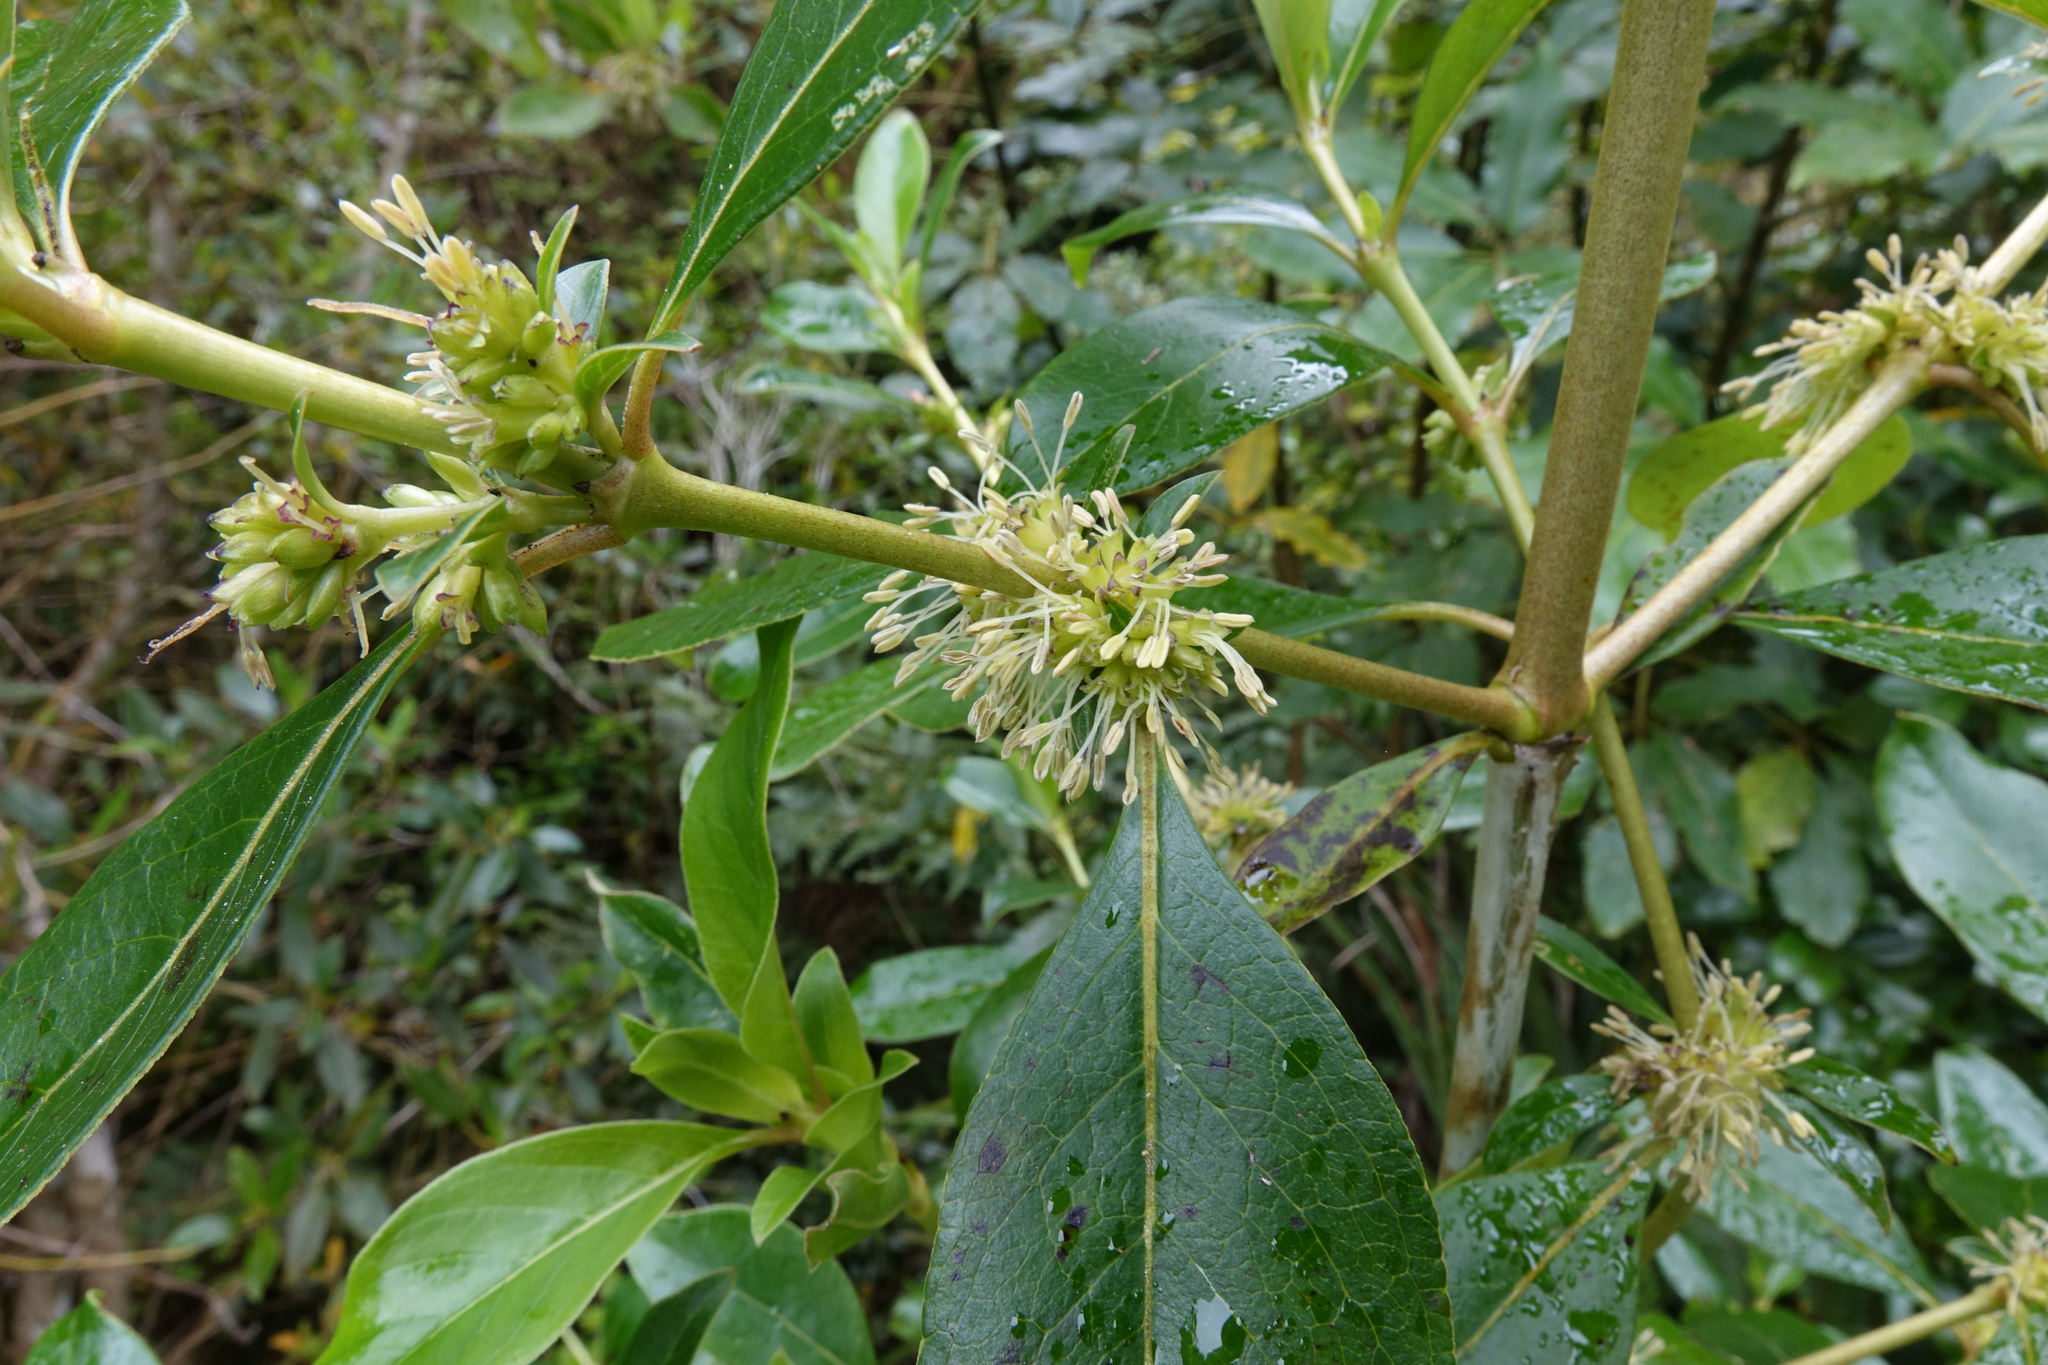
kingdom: Plantae
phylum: Tracheophyta
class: Magnoliopsida
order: Gentianales
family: Rubiaceae
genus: Coprosma
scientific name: Coprosma robusta
